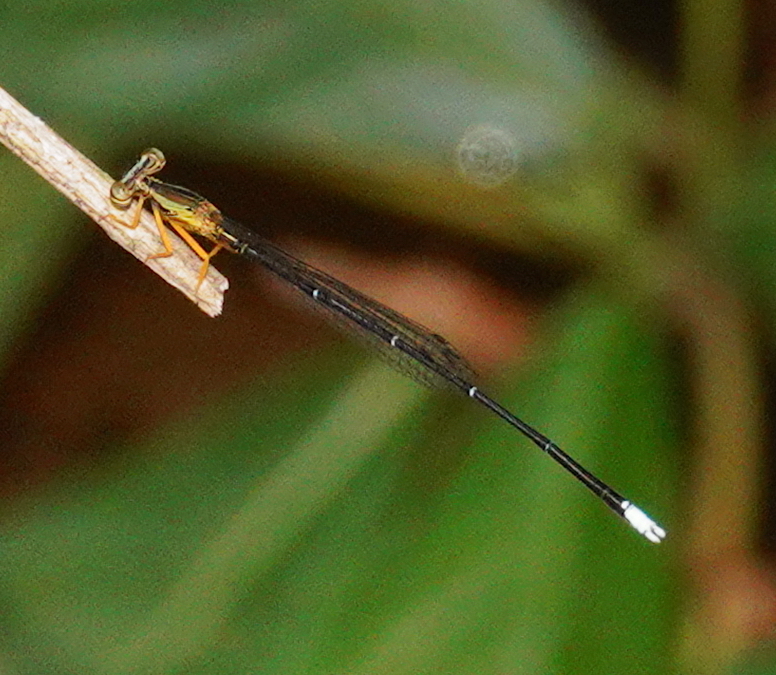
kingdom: Animalia
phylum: Arthropoda
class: Insecta
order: Odonata
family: Platycnemididae
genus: Copera
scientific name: Copera marginipes
